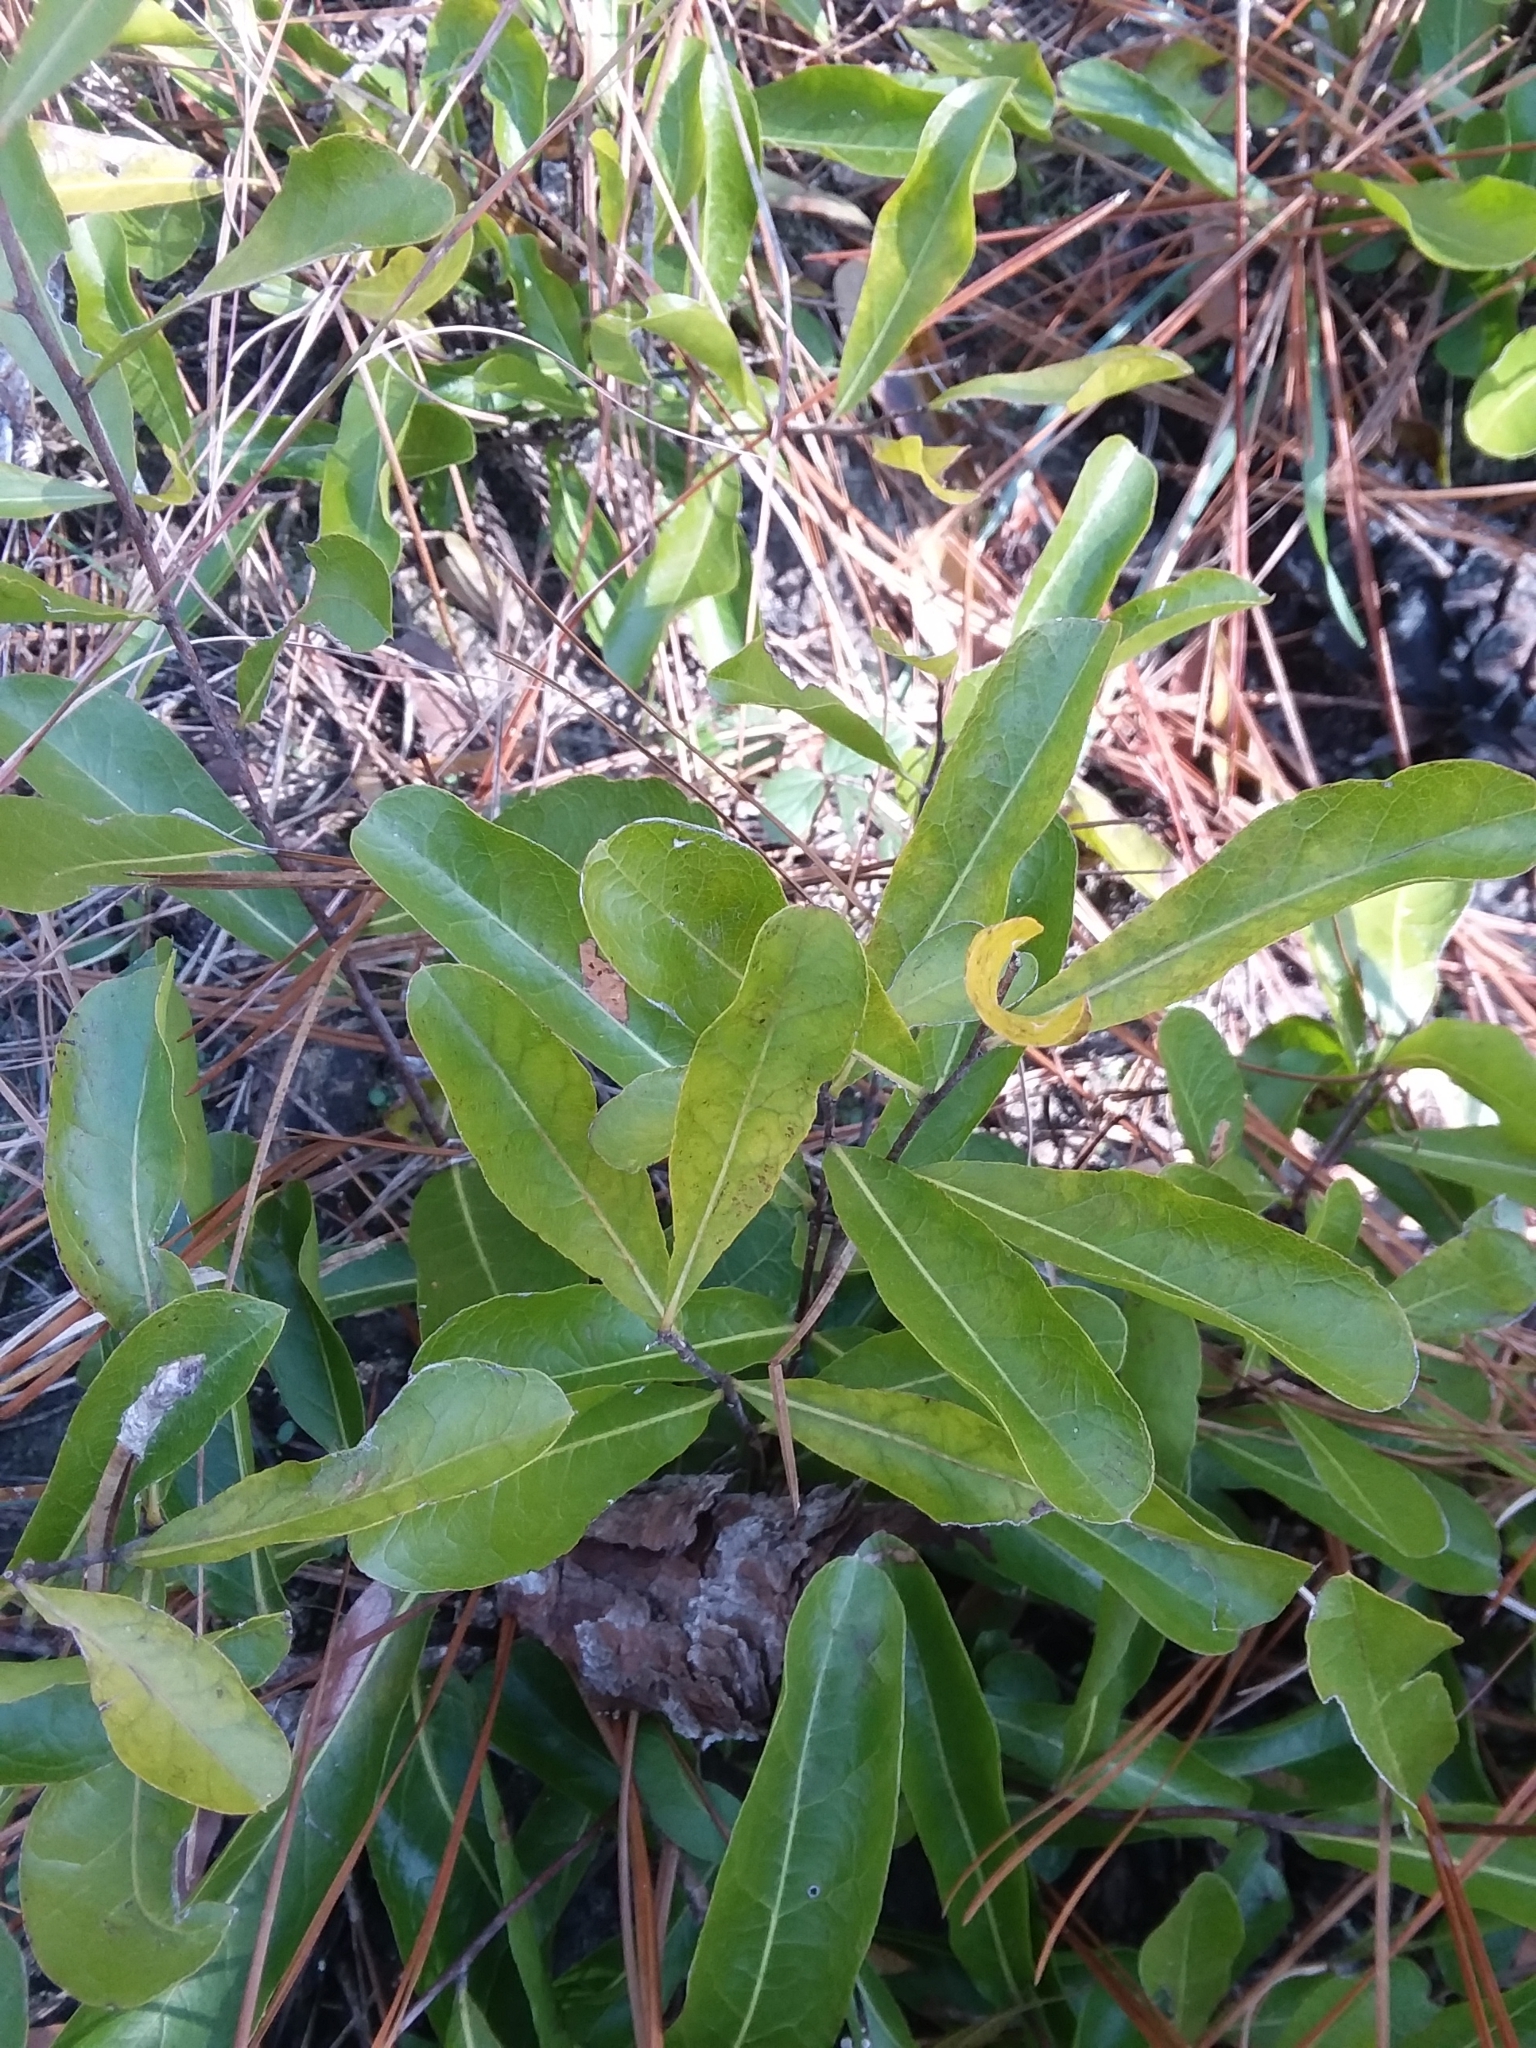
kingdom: Plantae
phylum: Tracheophyta
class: Magnoliopsida
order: Malpighiales
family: Chrysobalanaceae
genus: Geobalanus
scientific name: Geobalanus oblongifolius
